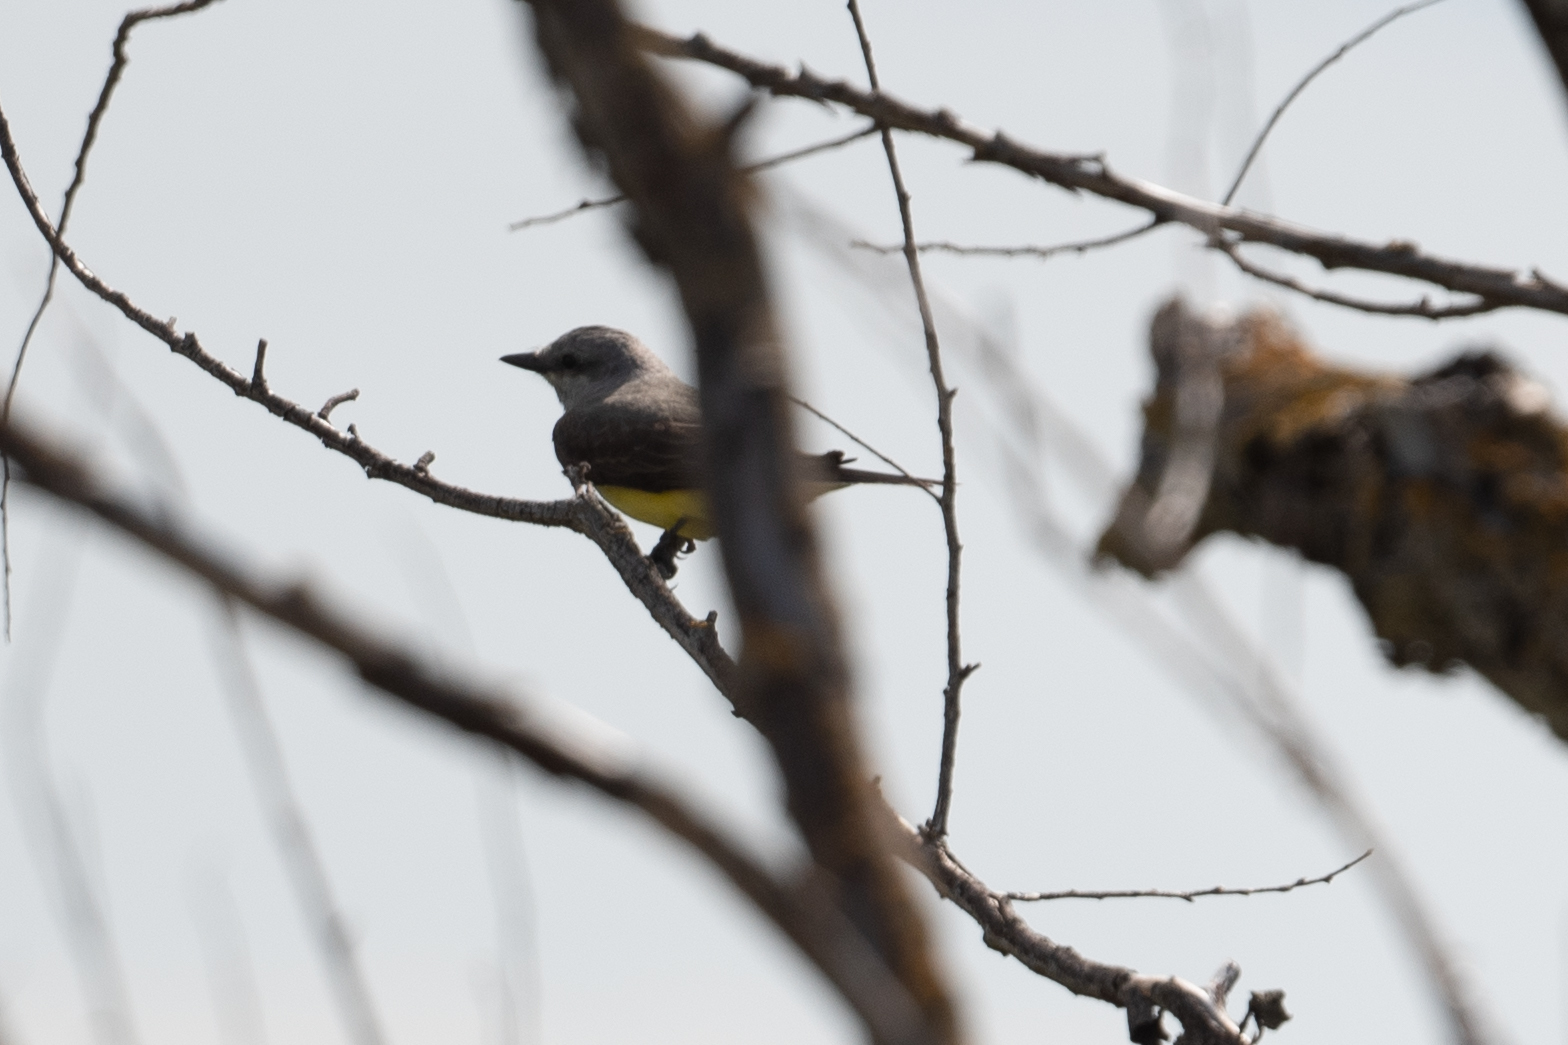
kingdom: Animalia
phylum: Chordata
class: Aves
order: Passeriformes
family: Tyrannidae
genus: Tyrannus
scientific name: Tyrannus verticalis
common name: Western kingbird
